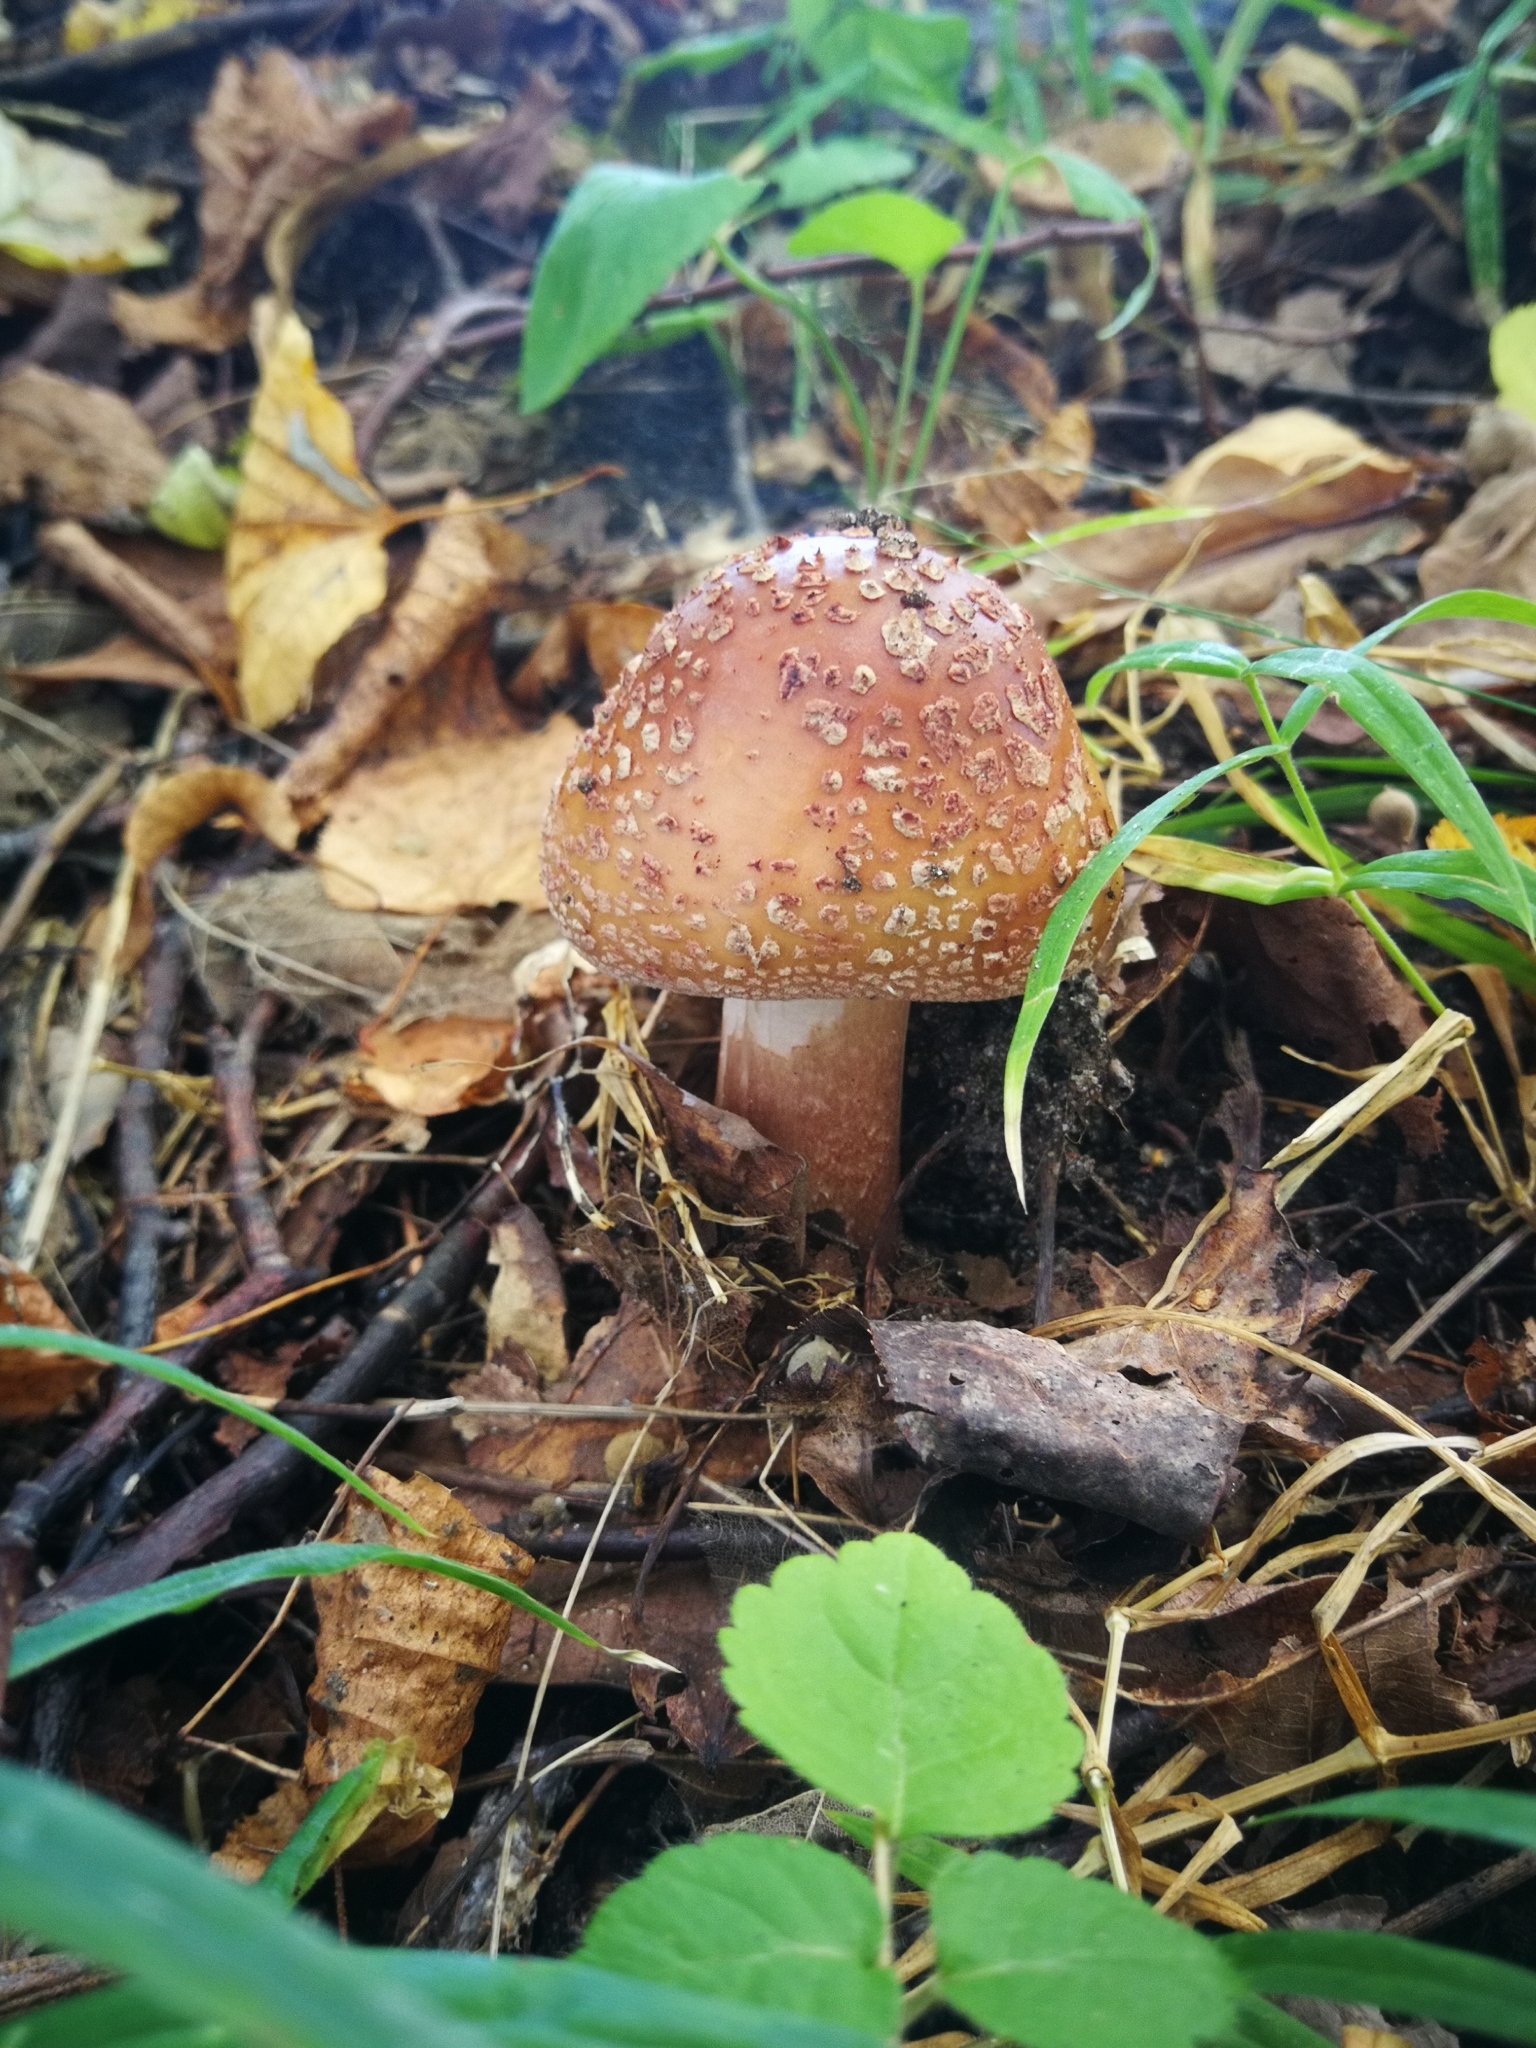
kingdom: Fungi
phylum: Basidiomycota
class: Agaricomycetes
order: Agaricales
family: Amanitaceae
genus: Amanita
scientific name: Amanita rubescens
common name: Blusher
